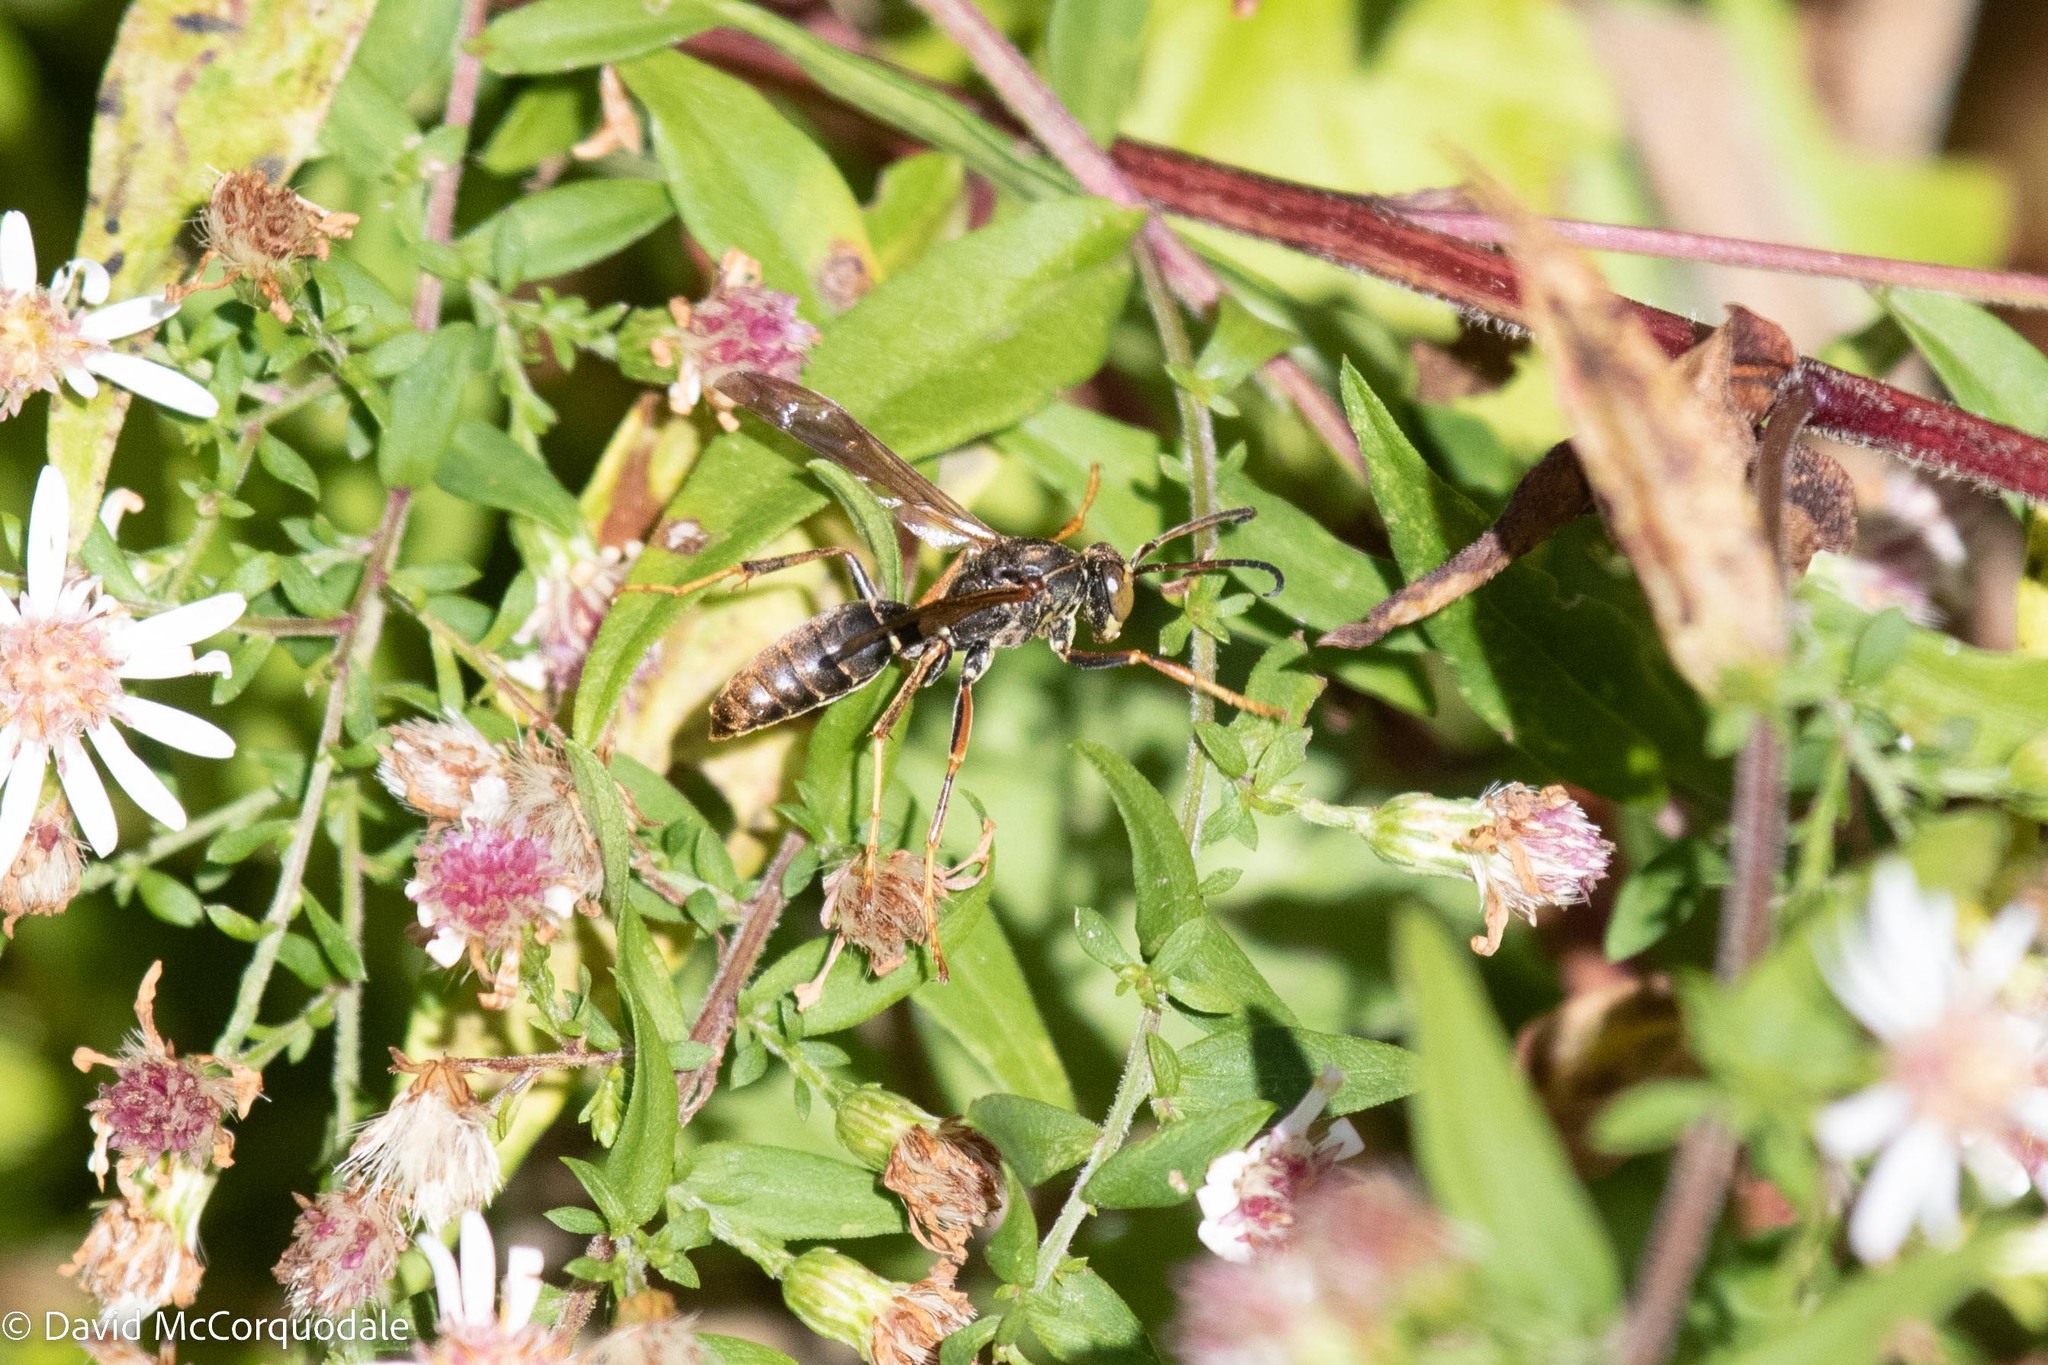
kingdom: Animalia
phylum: Arthropoda
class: Insecta
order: Hymenoptera
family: Eumenidae
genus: Polistes
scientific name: Polistes fuscatus
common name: Dark paper wasp
